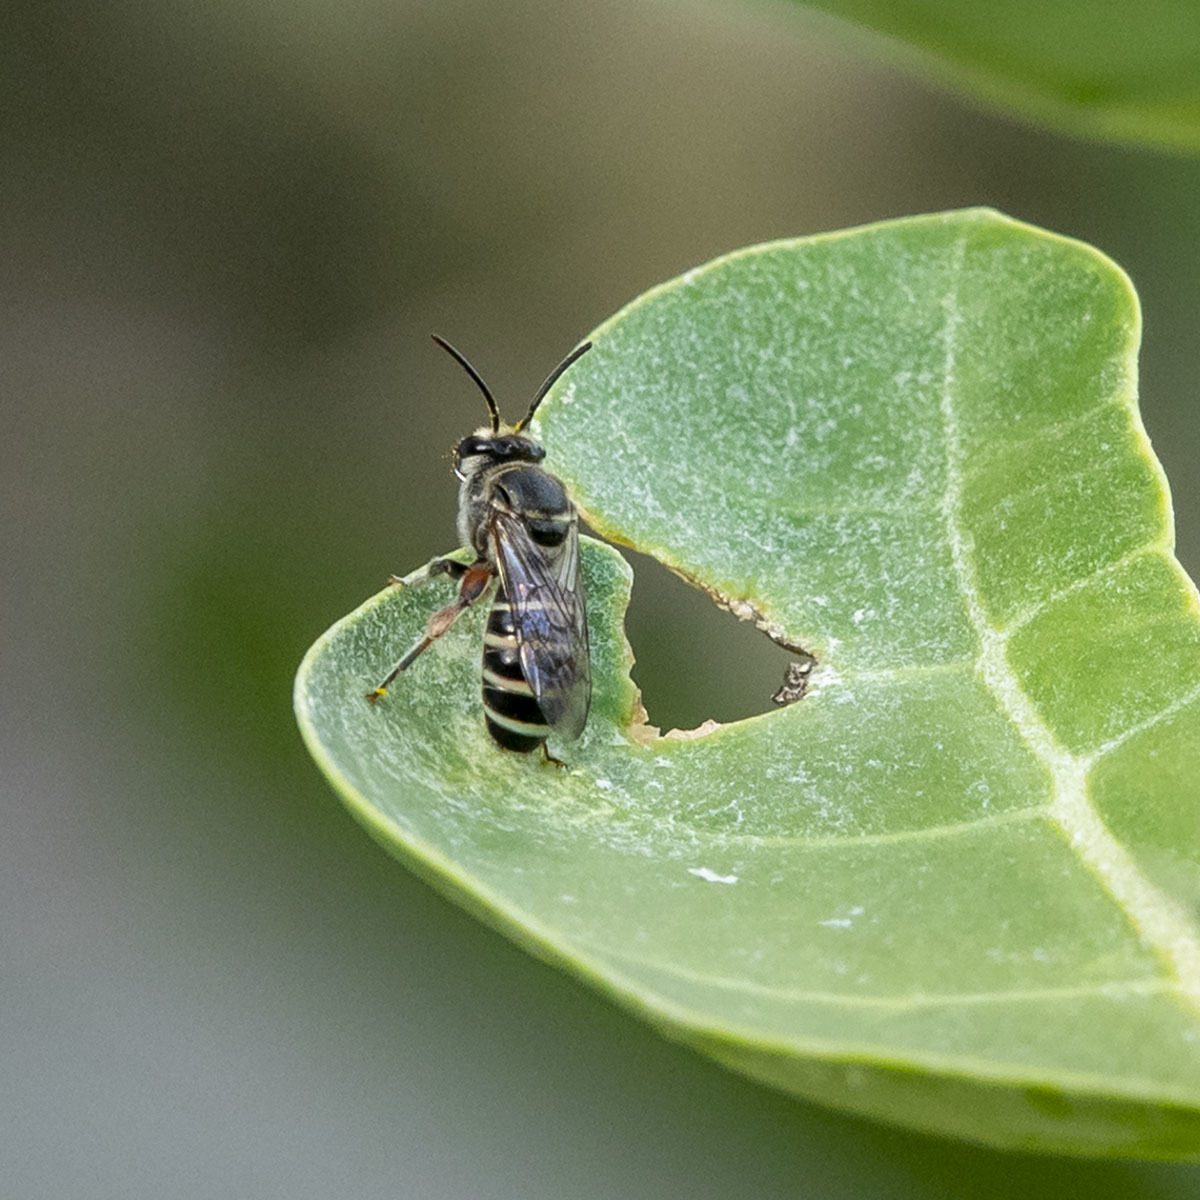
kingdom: Animalia
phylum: Arthropoda
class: Insecta
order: Hymenoptera
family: Halictidae
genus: Nomia
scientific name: Nomia westwoodi
